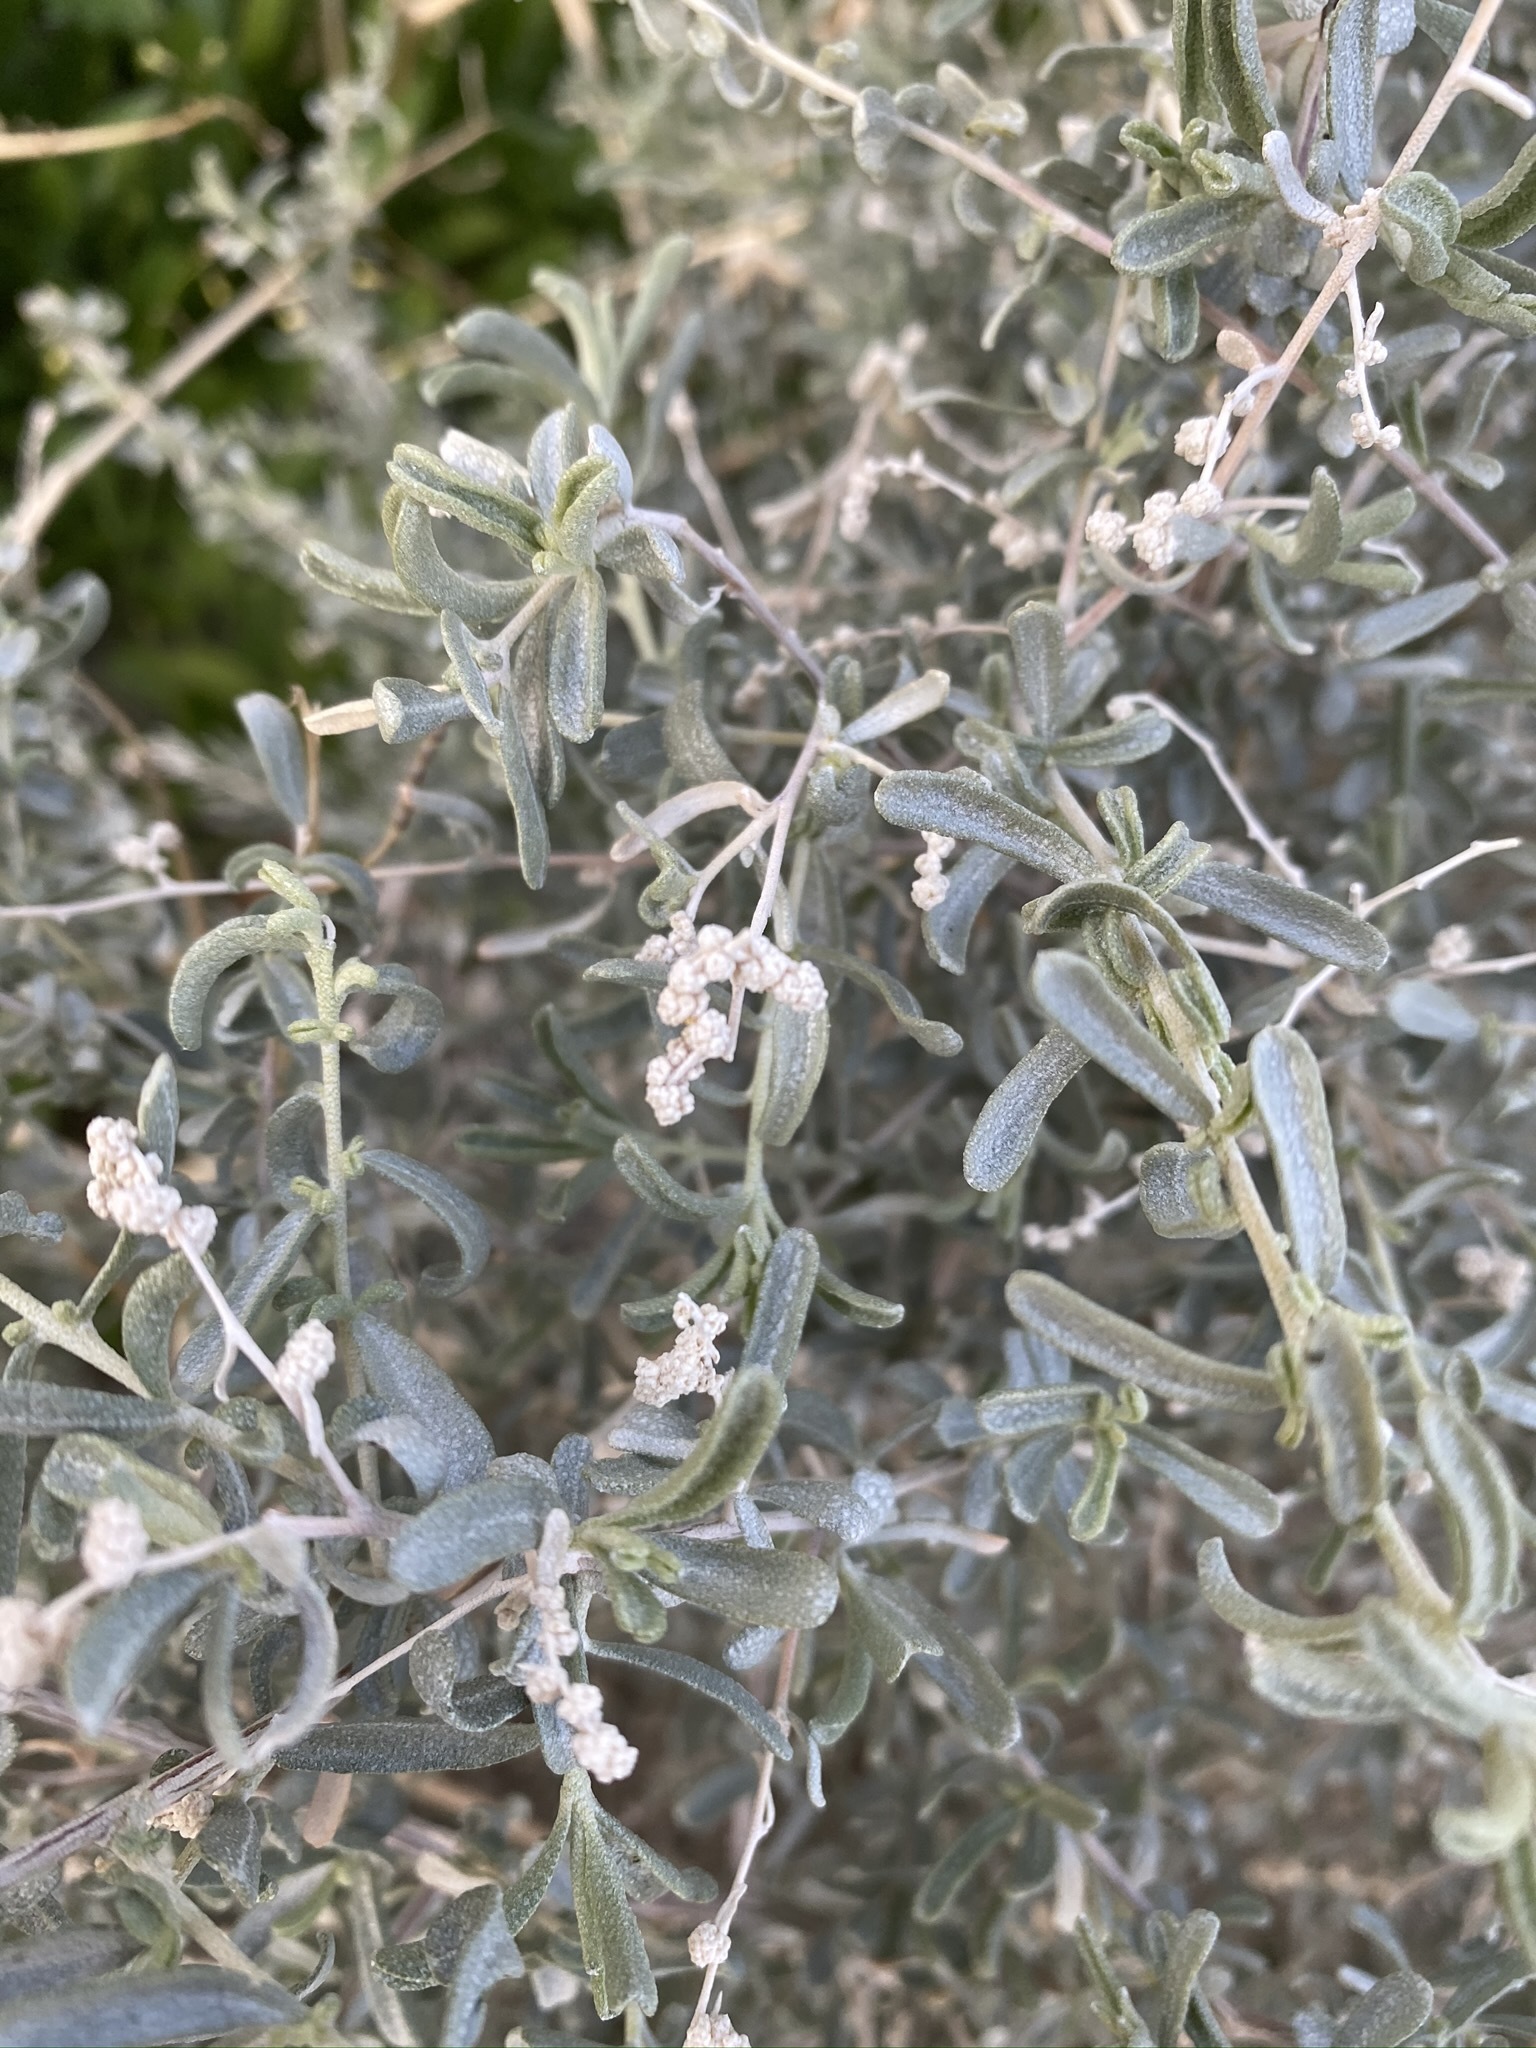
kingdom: Plantae
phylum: Tracheophyta
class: Magnoliopsida
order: Caryophyllales
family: Amaranthaceae
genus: Atriplex
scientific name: Atriplex canescens
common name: Four-wing saltbush
